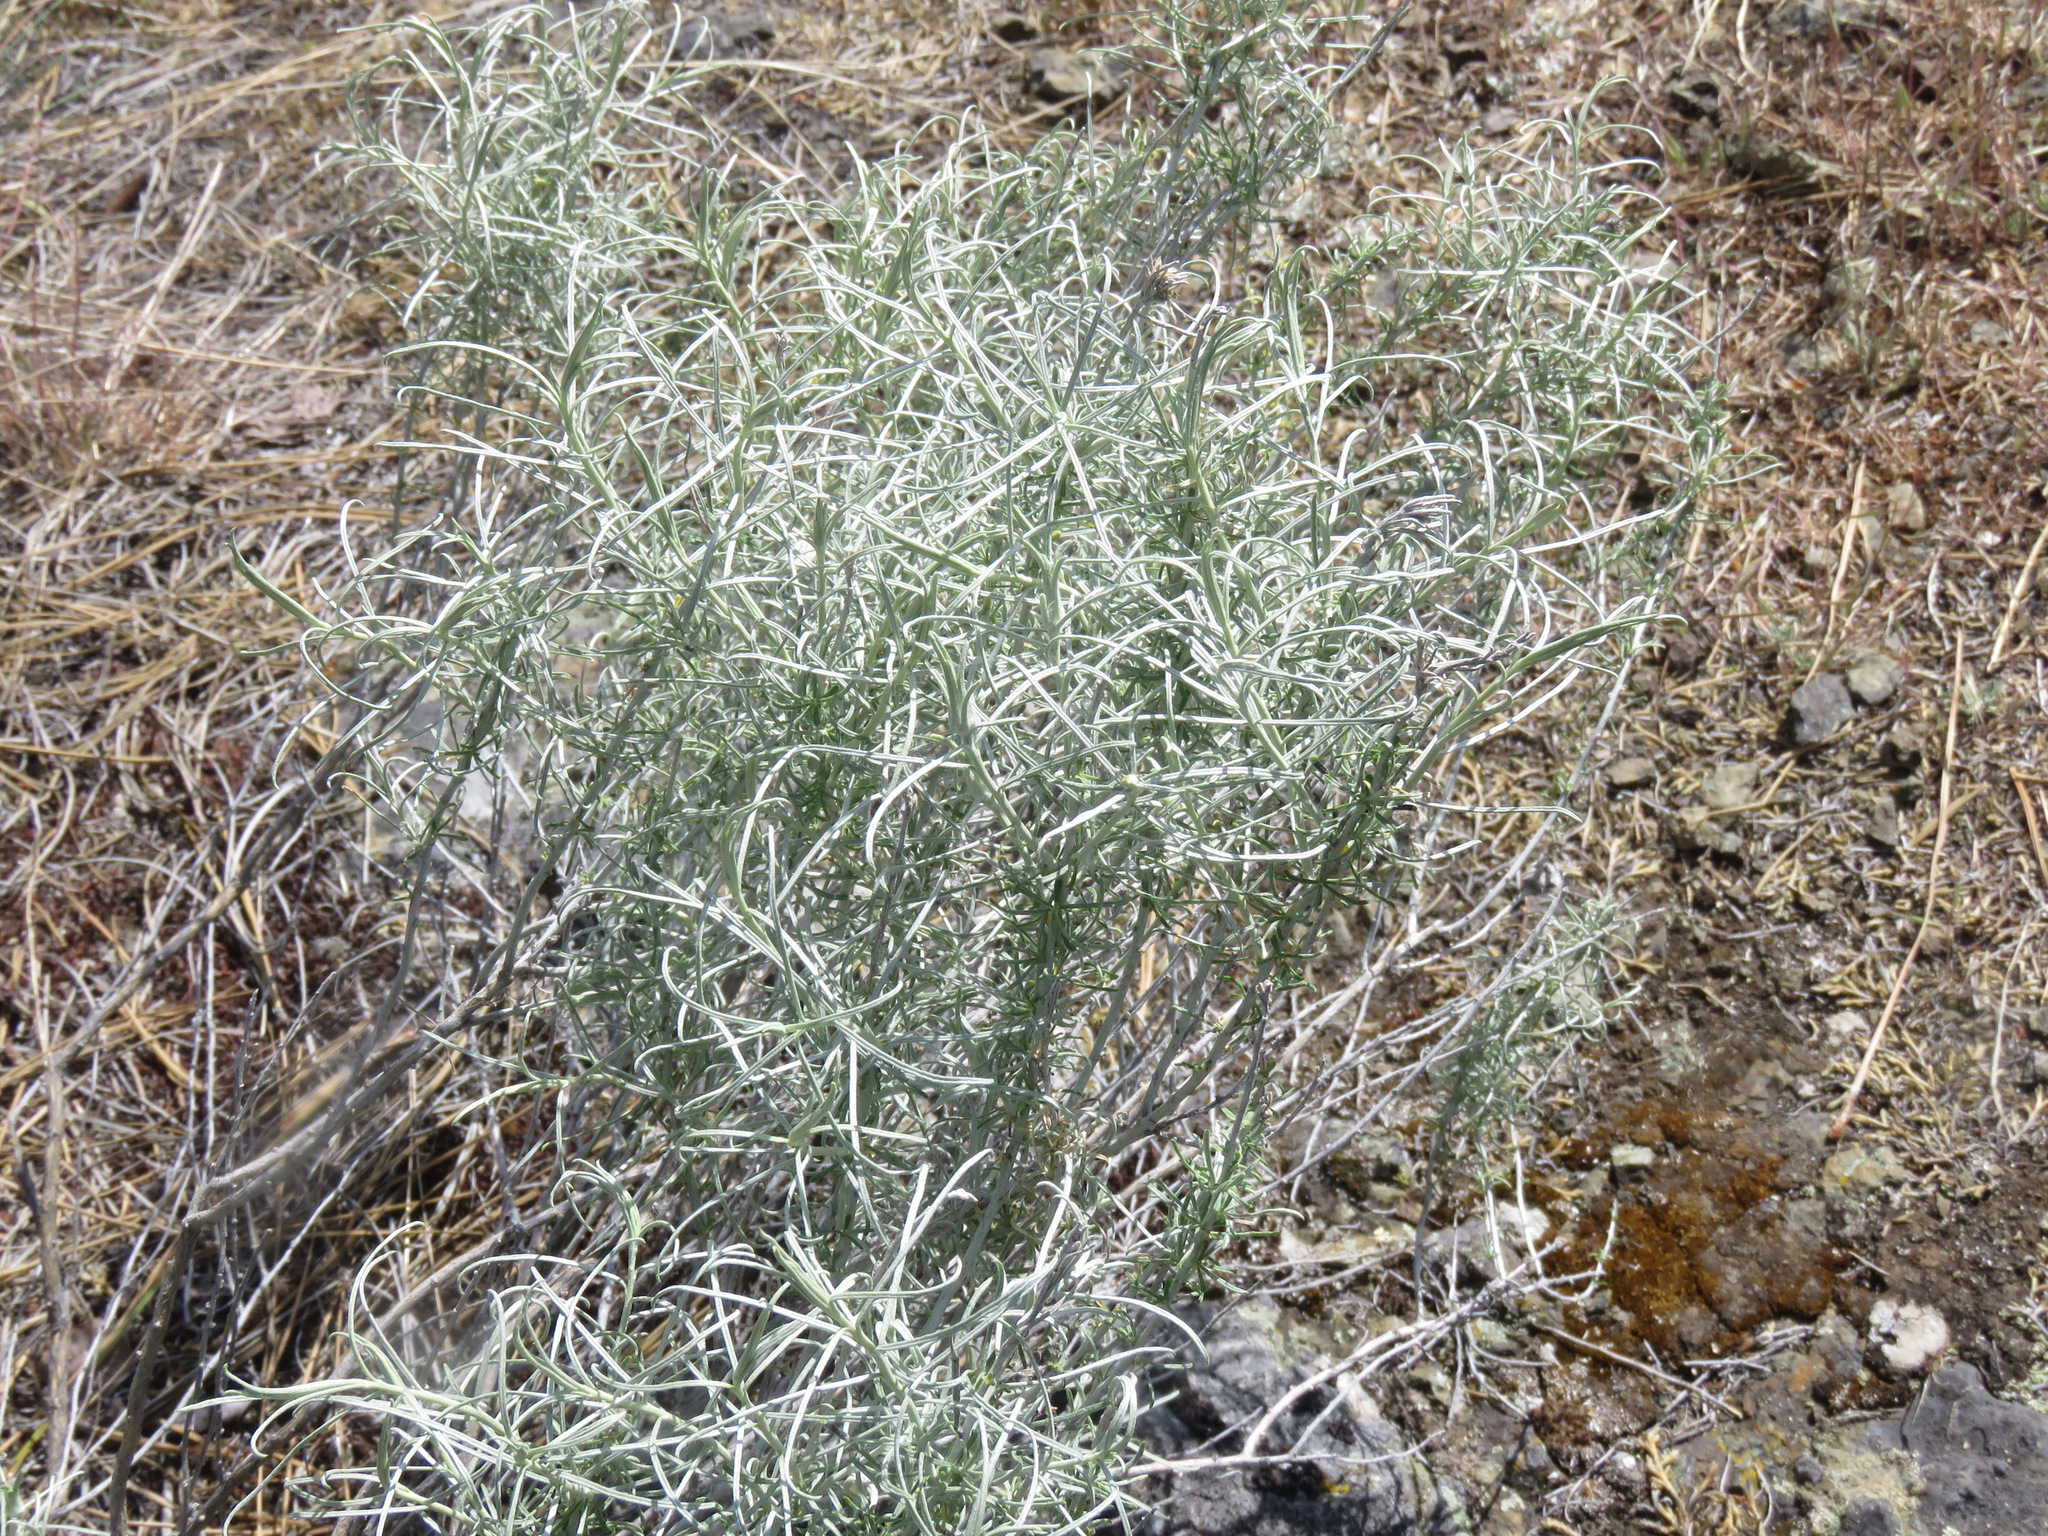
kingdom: Plantae
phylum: Tracheophyta
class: Magnoliopsida
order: Asterales
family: Asteraceae
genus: Ericameria
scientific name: Ericameria nauseosa
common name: Rubber rabbitbrush
